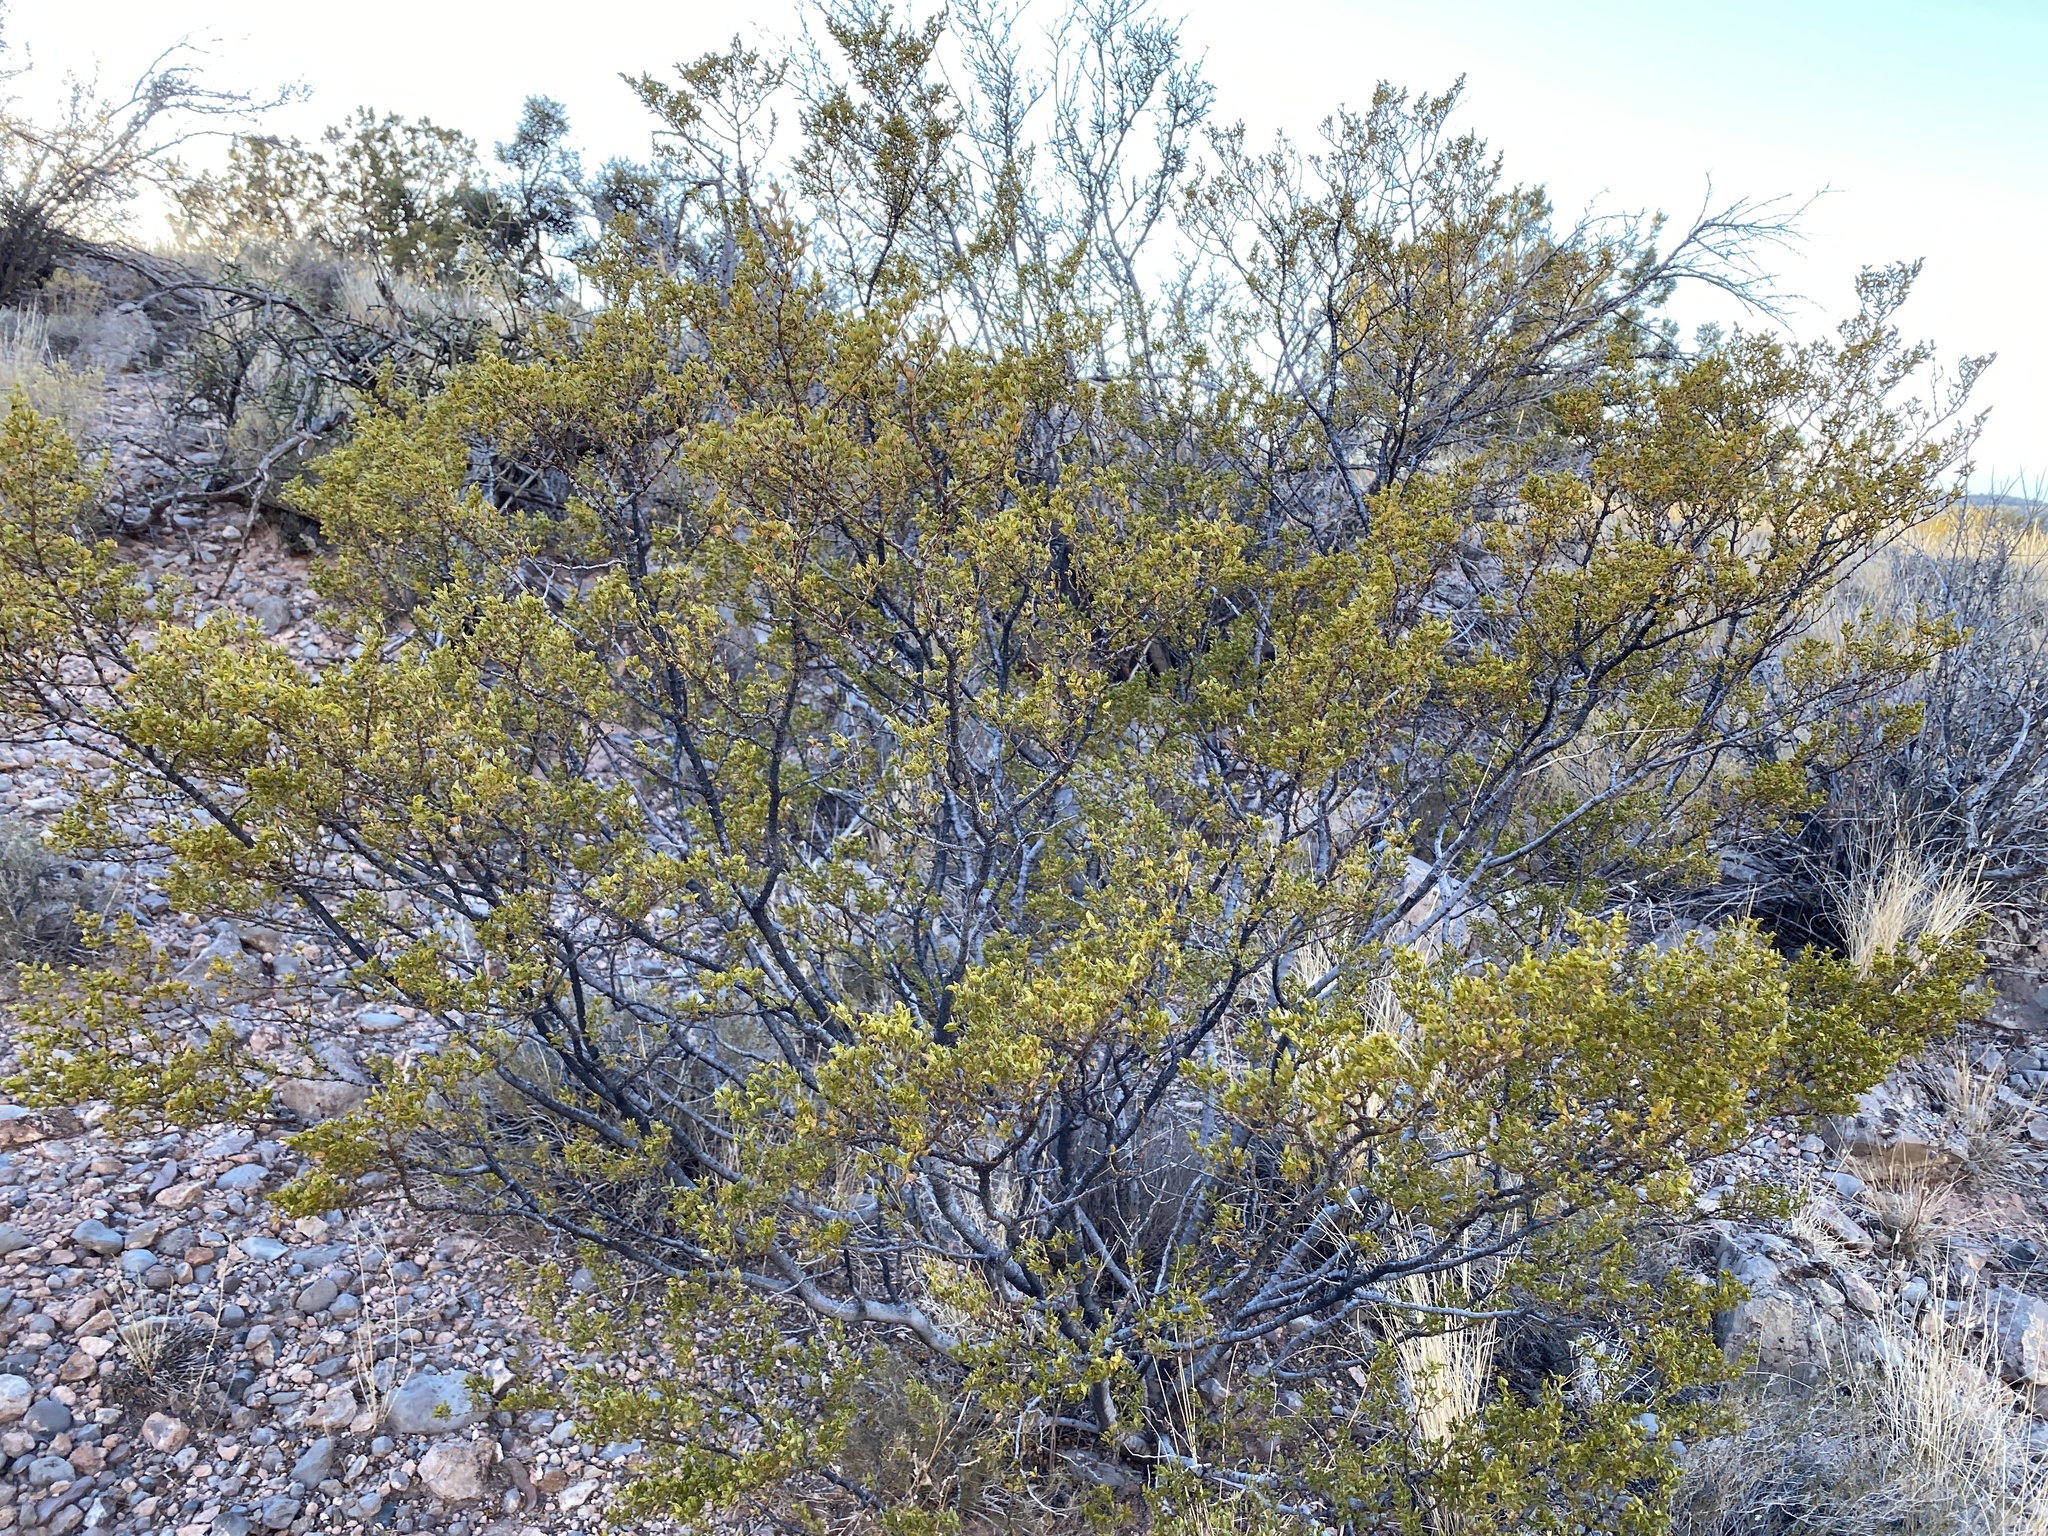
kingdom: Plantae
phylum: Tracheophyta
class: Magnoliopsida
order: Zygophyllales
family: Zygophyllaceae
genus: Larrea
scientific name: Larrea tridentata
